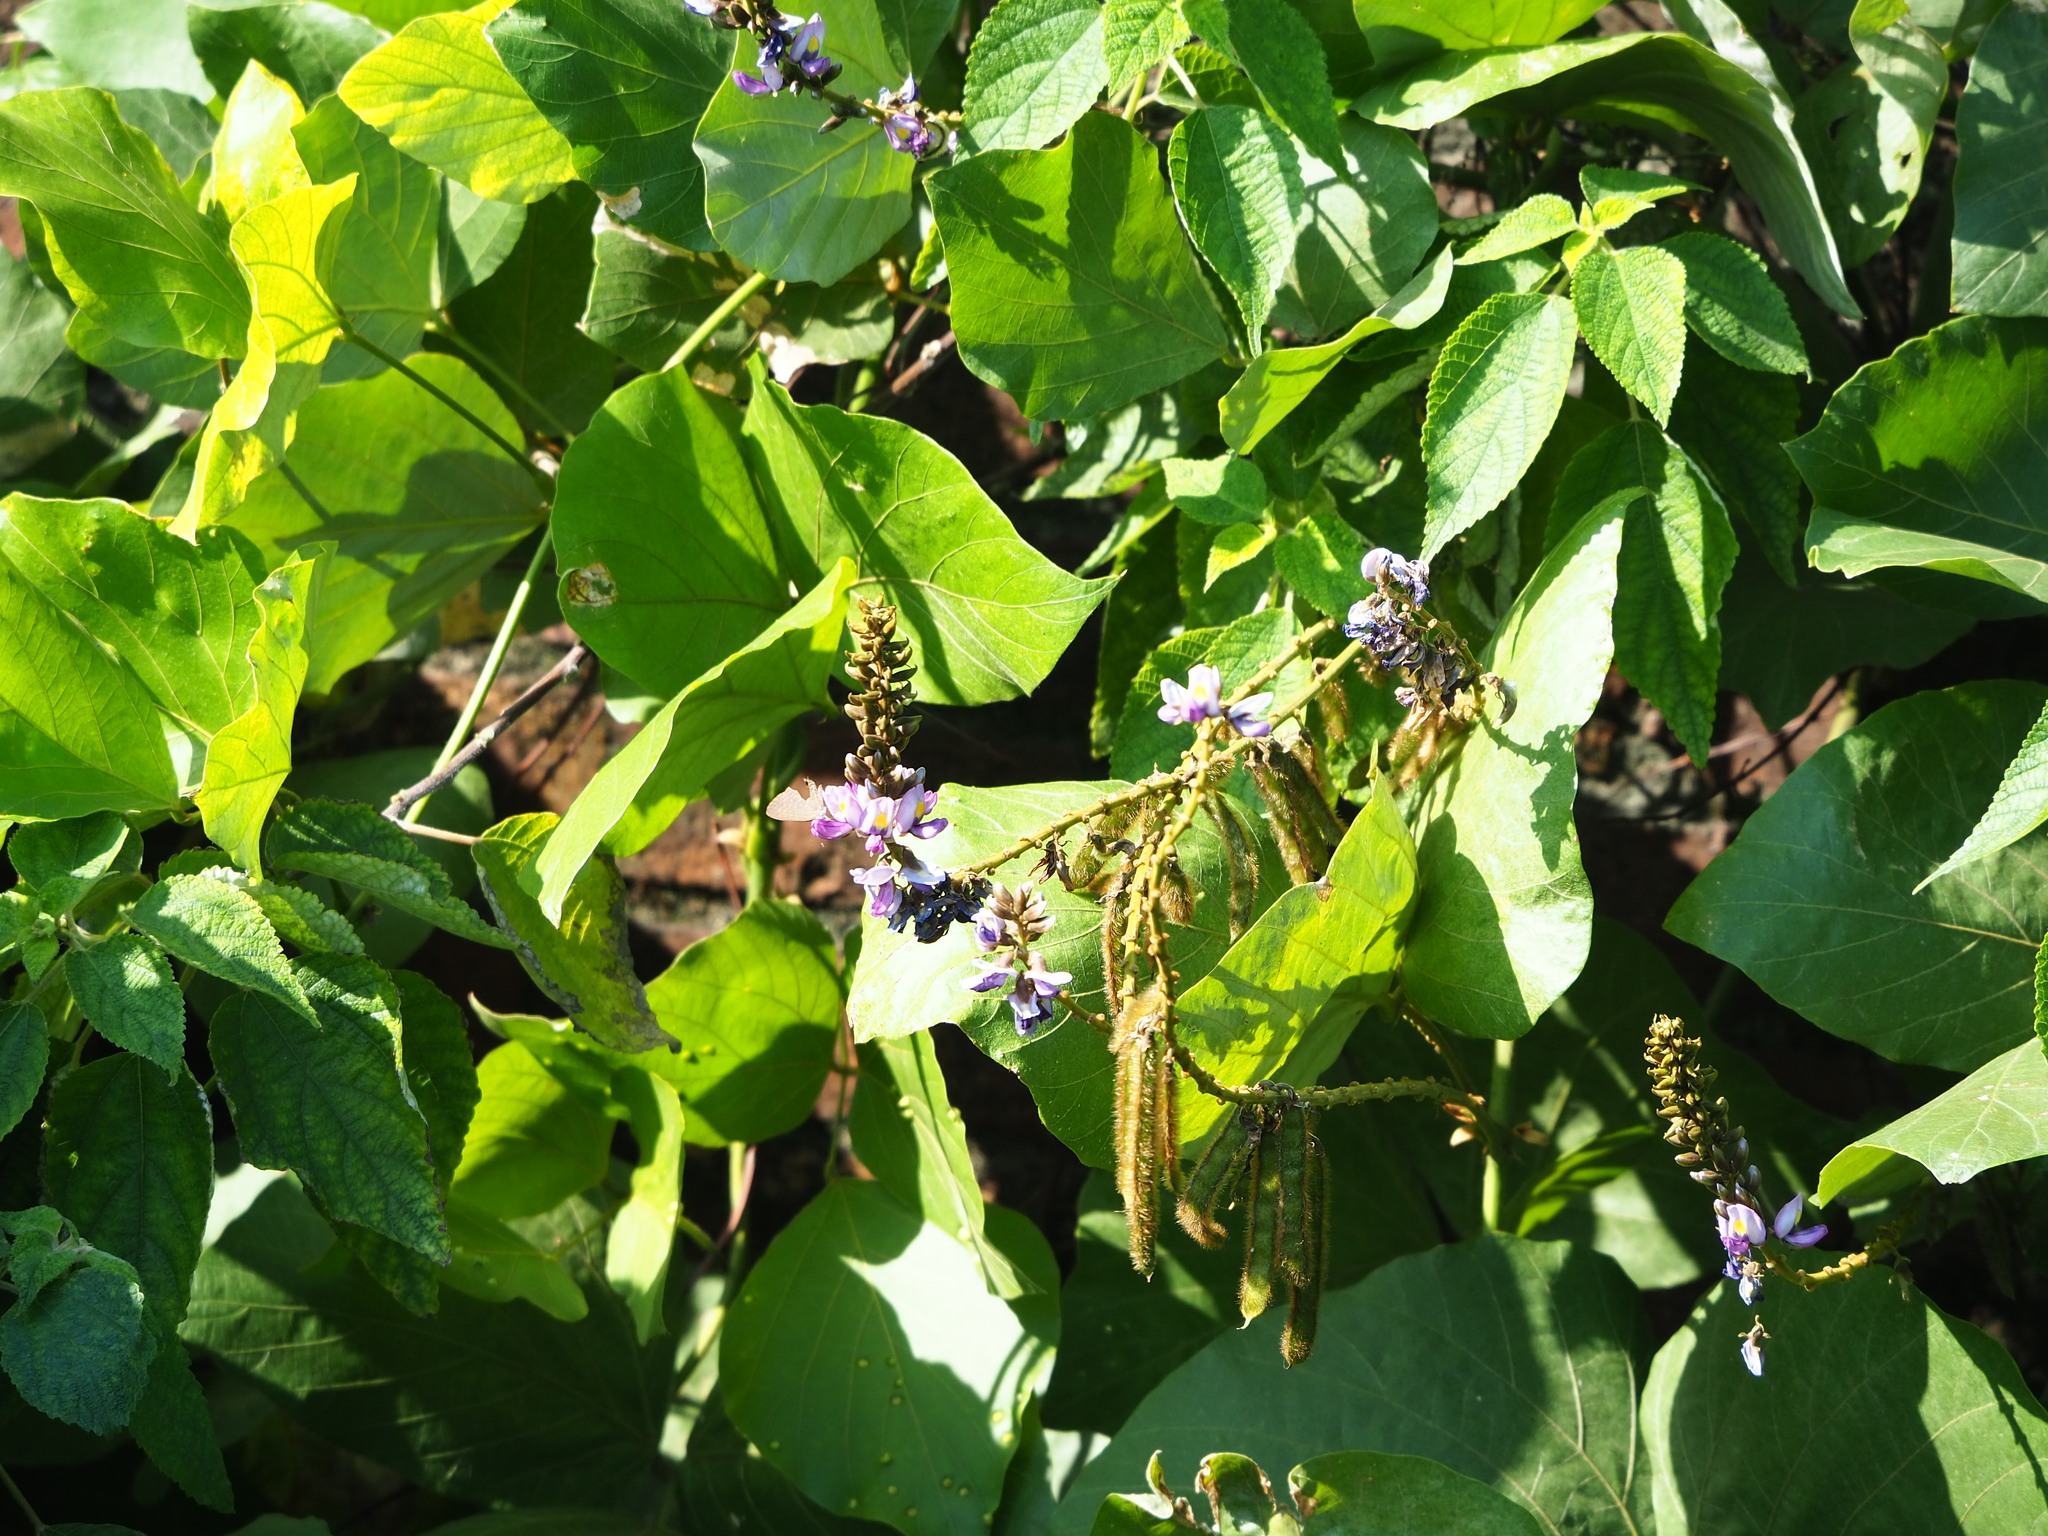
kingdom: Plantae
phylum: Tracheophyta
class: Magnoliopsida
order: Fabales
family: Fabaceae
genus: Pueraria
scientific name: Pueraria montana
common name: Kudzu
